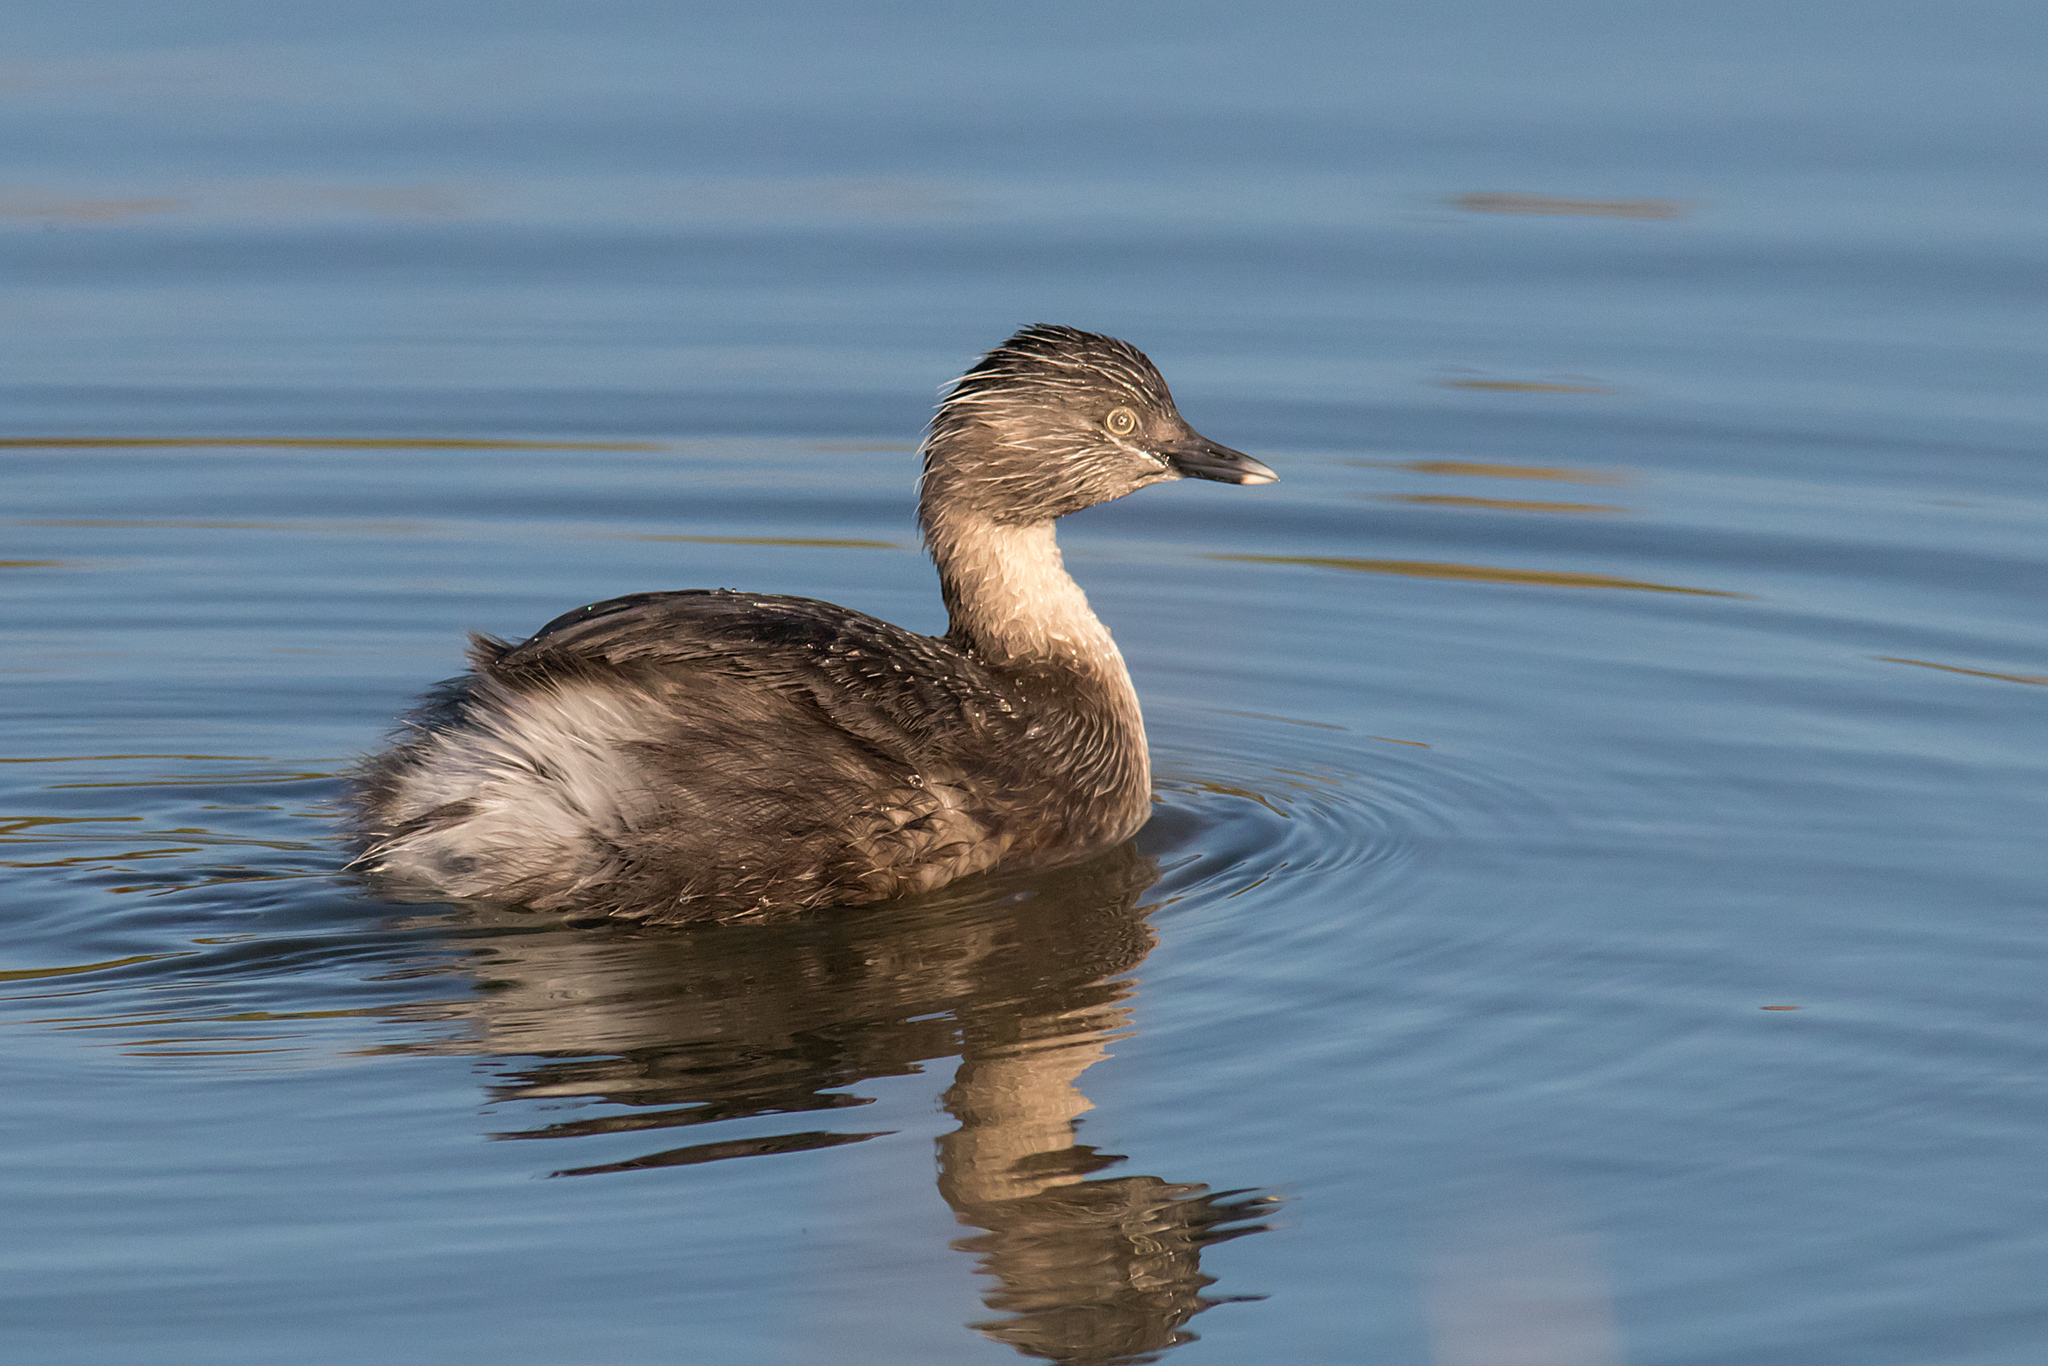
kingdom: Animalia
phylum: Chordata
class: Aves
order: Podicipediformes
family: Podicipedidae
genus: Poliocephalus
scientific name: Poliocephalus poliocephalus
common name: Hoary-headed grebe
